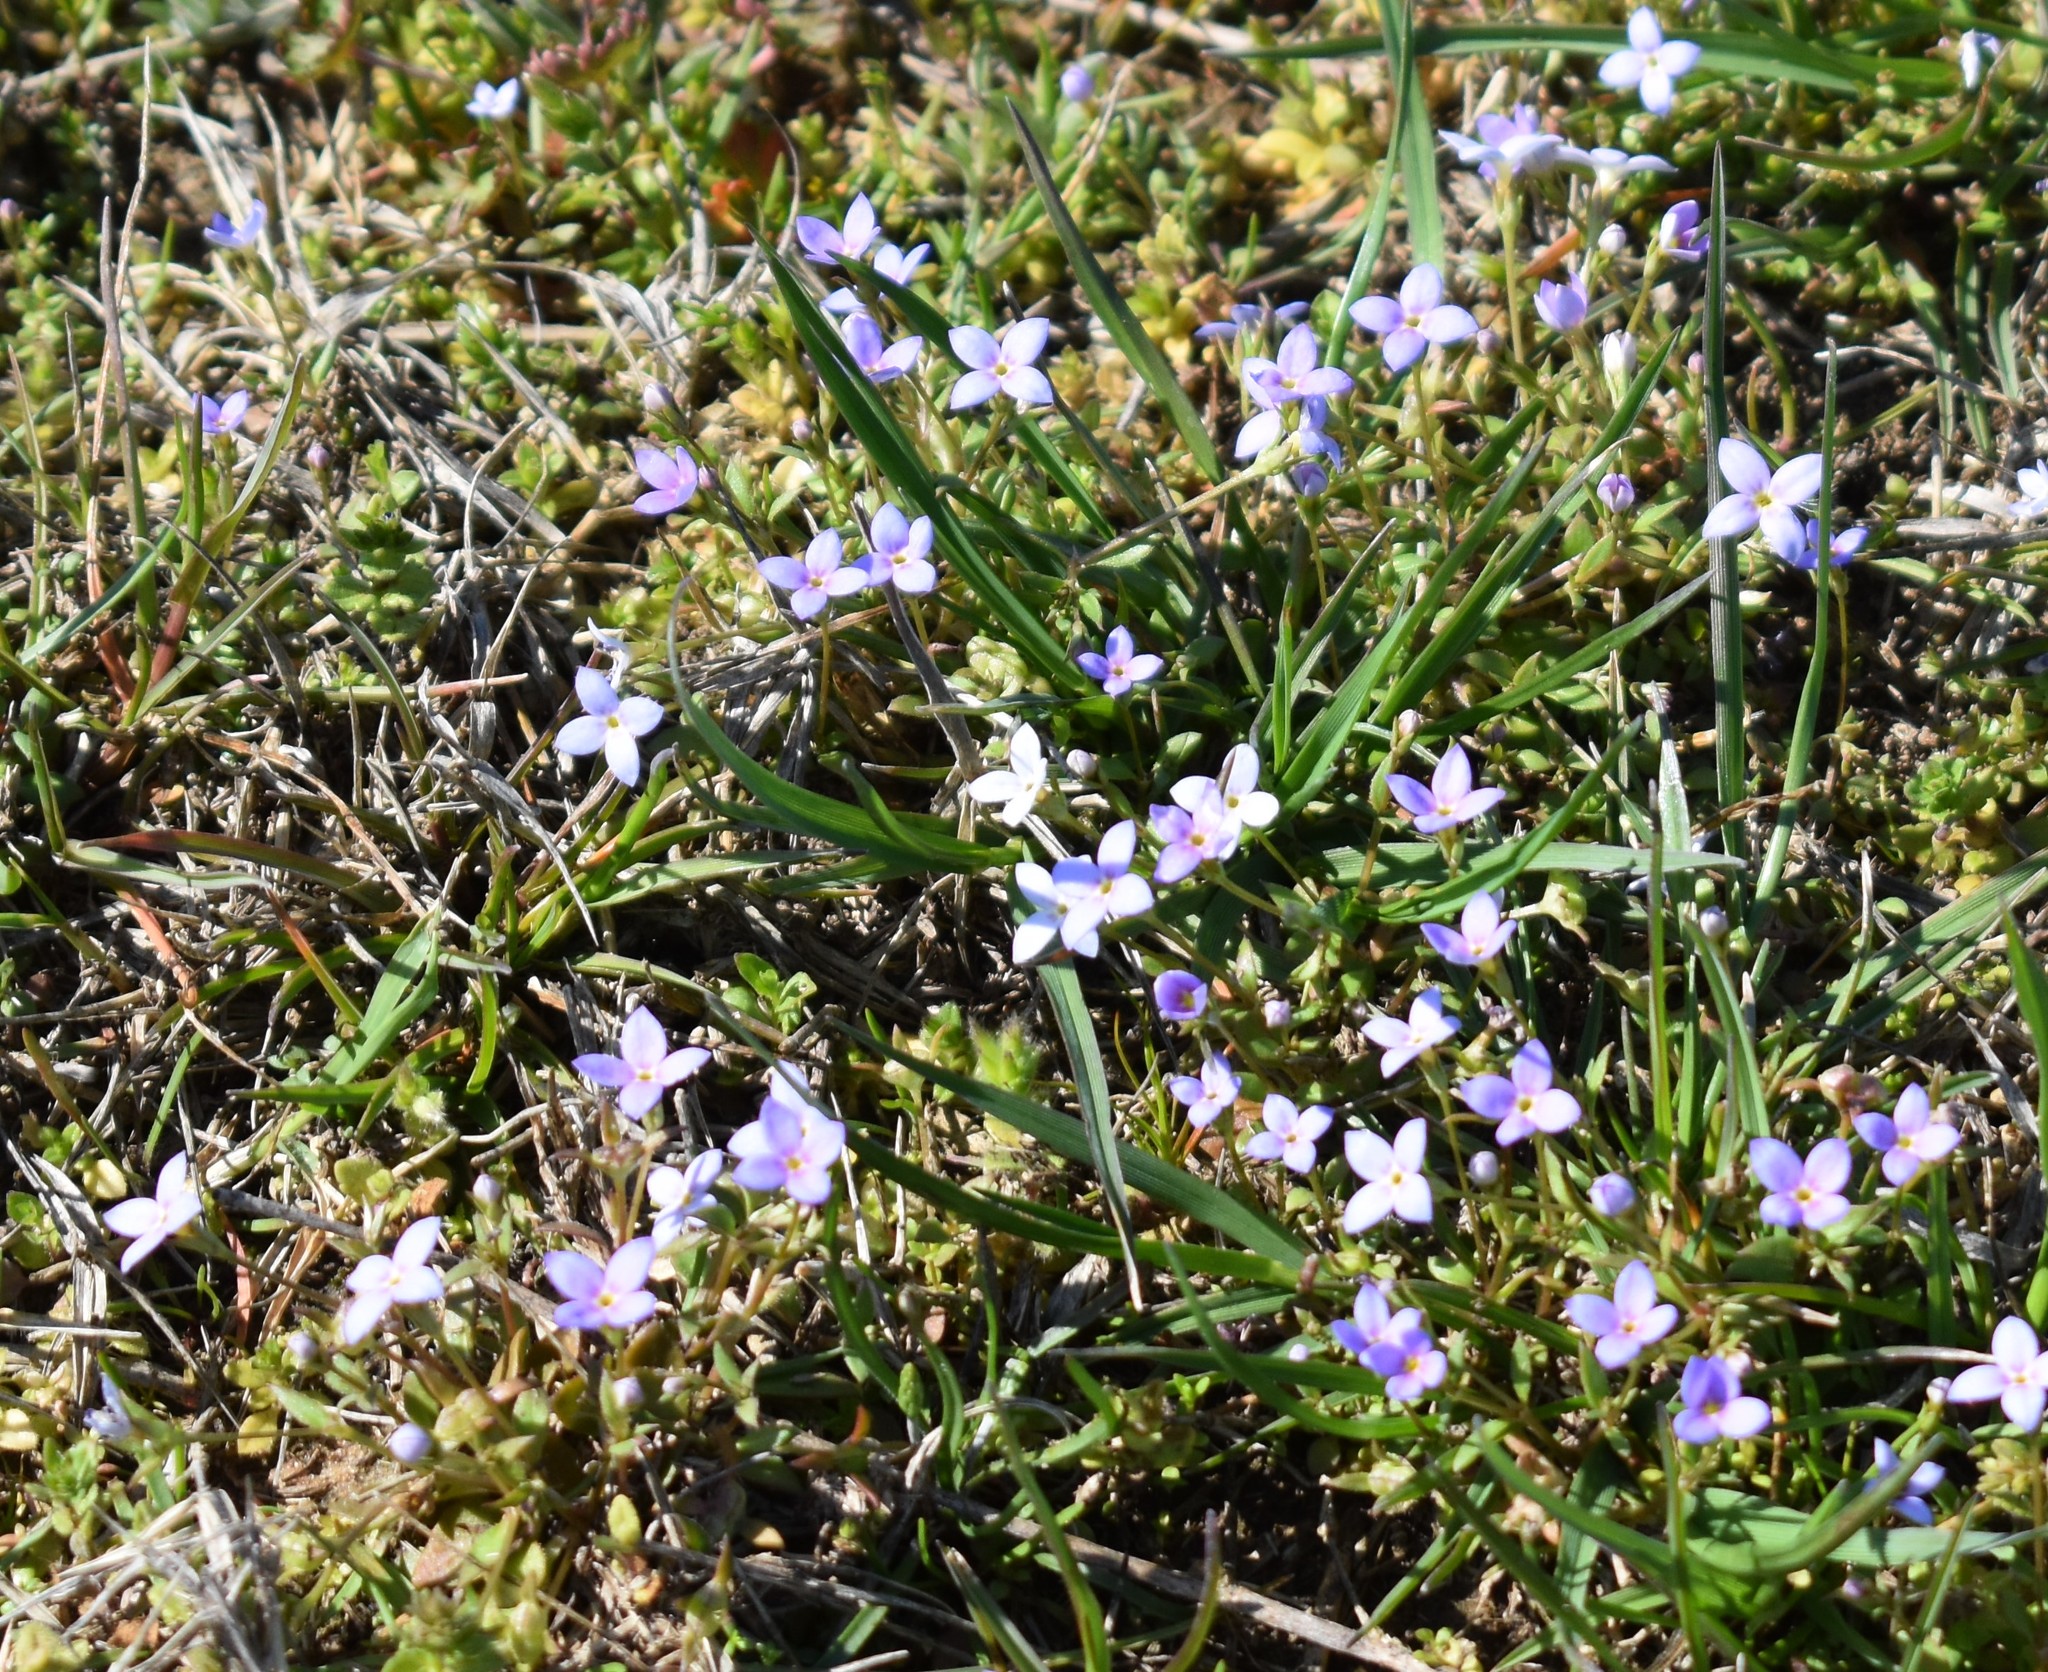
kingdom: Plantae
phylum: Tracheophyta
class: Magnoliopsida
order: Gentianales
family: Rubiaceae
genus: Houstonia
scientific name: Houstonia pusilla
